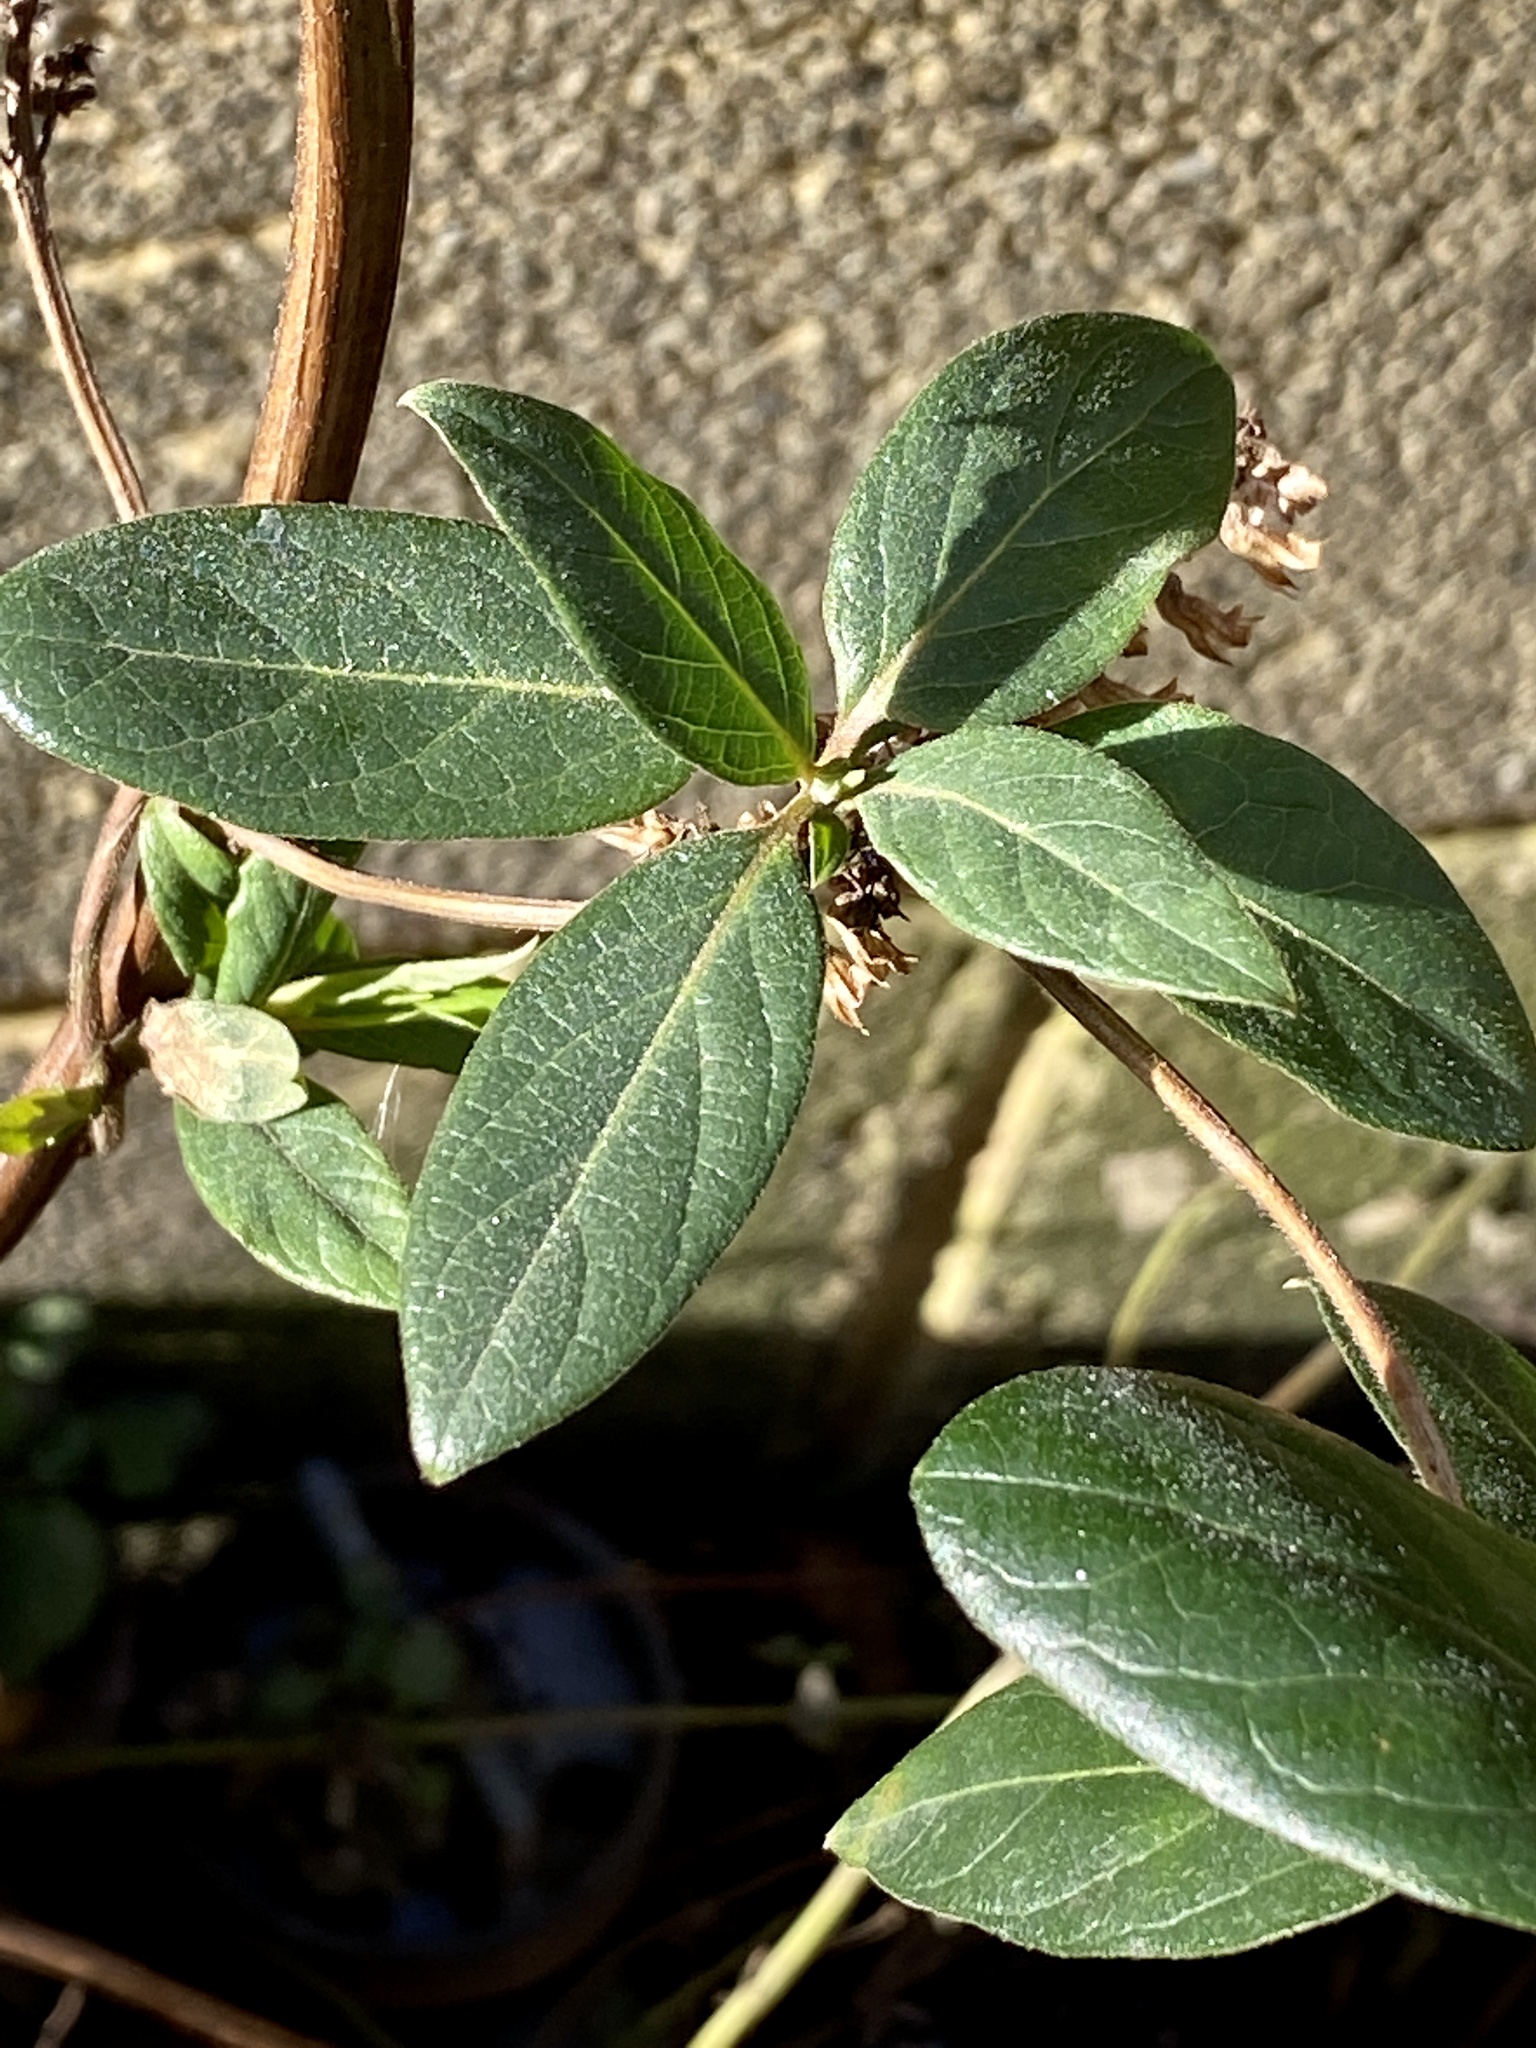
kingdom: Plantae
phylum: Tracheophyta
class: Magnoliopsida
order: Dipsacales
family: Caprifoliaceae
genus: Lonicera
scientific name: Lonicera japonica
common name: Japanese honeysuckle
